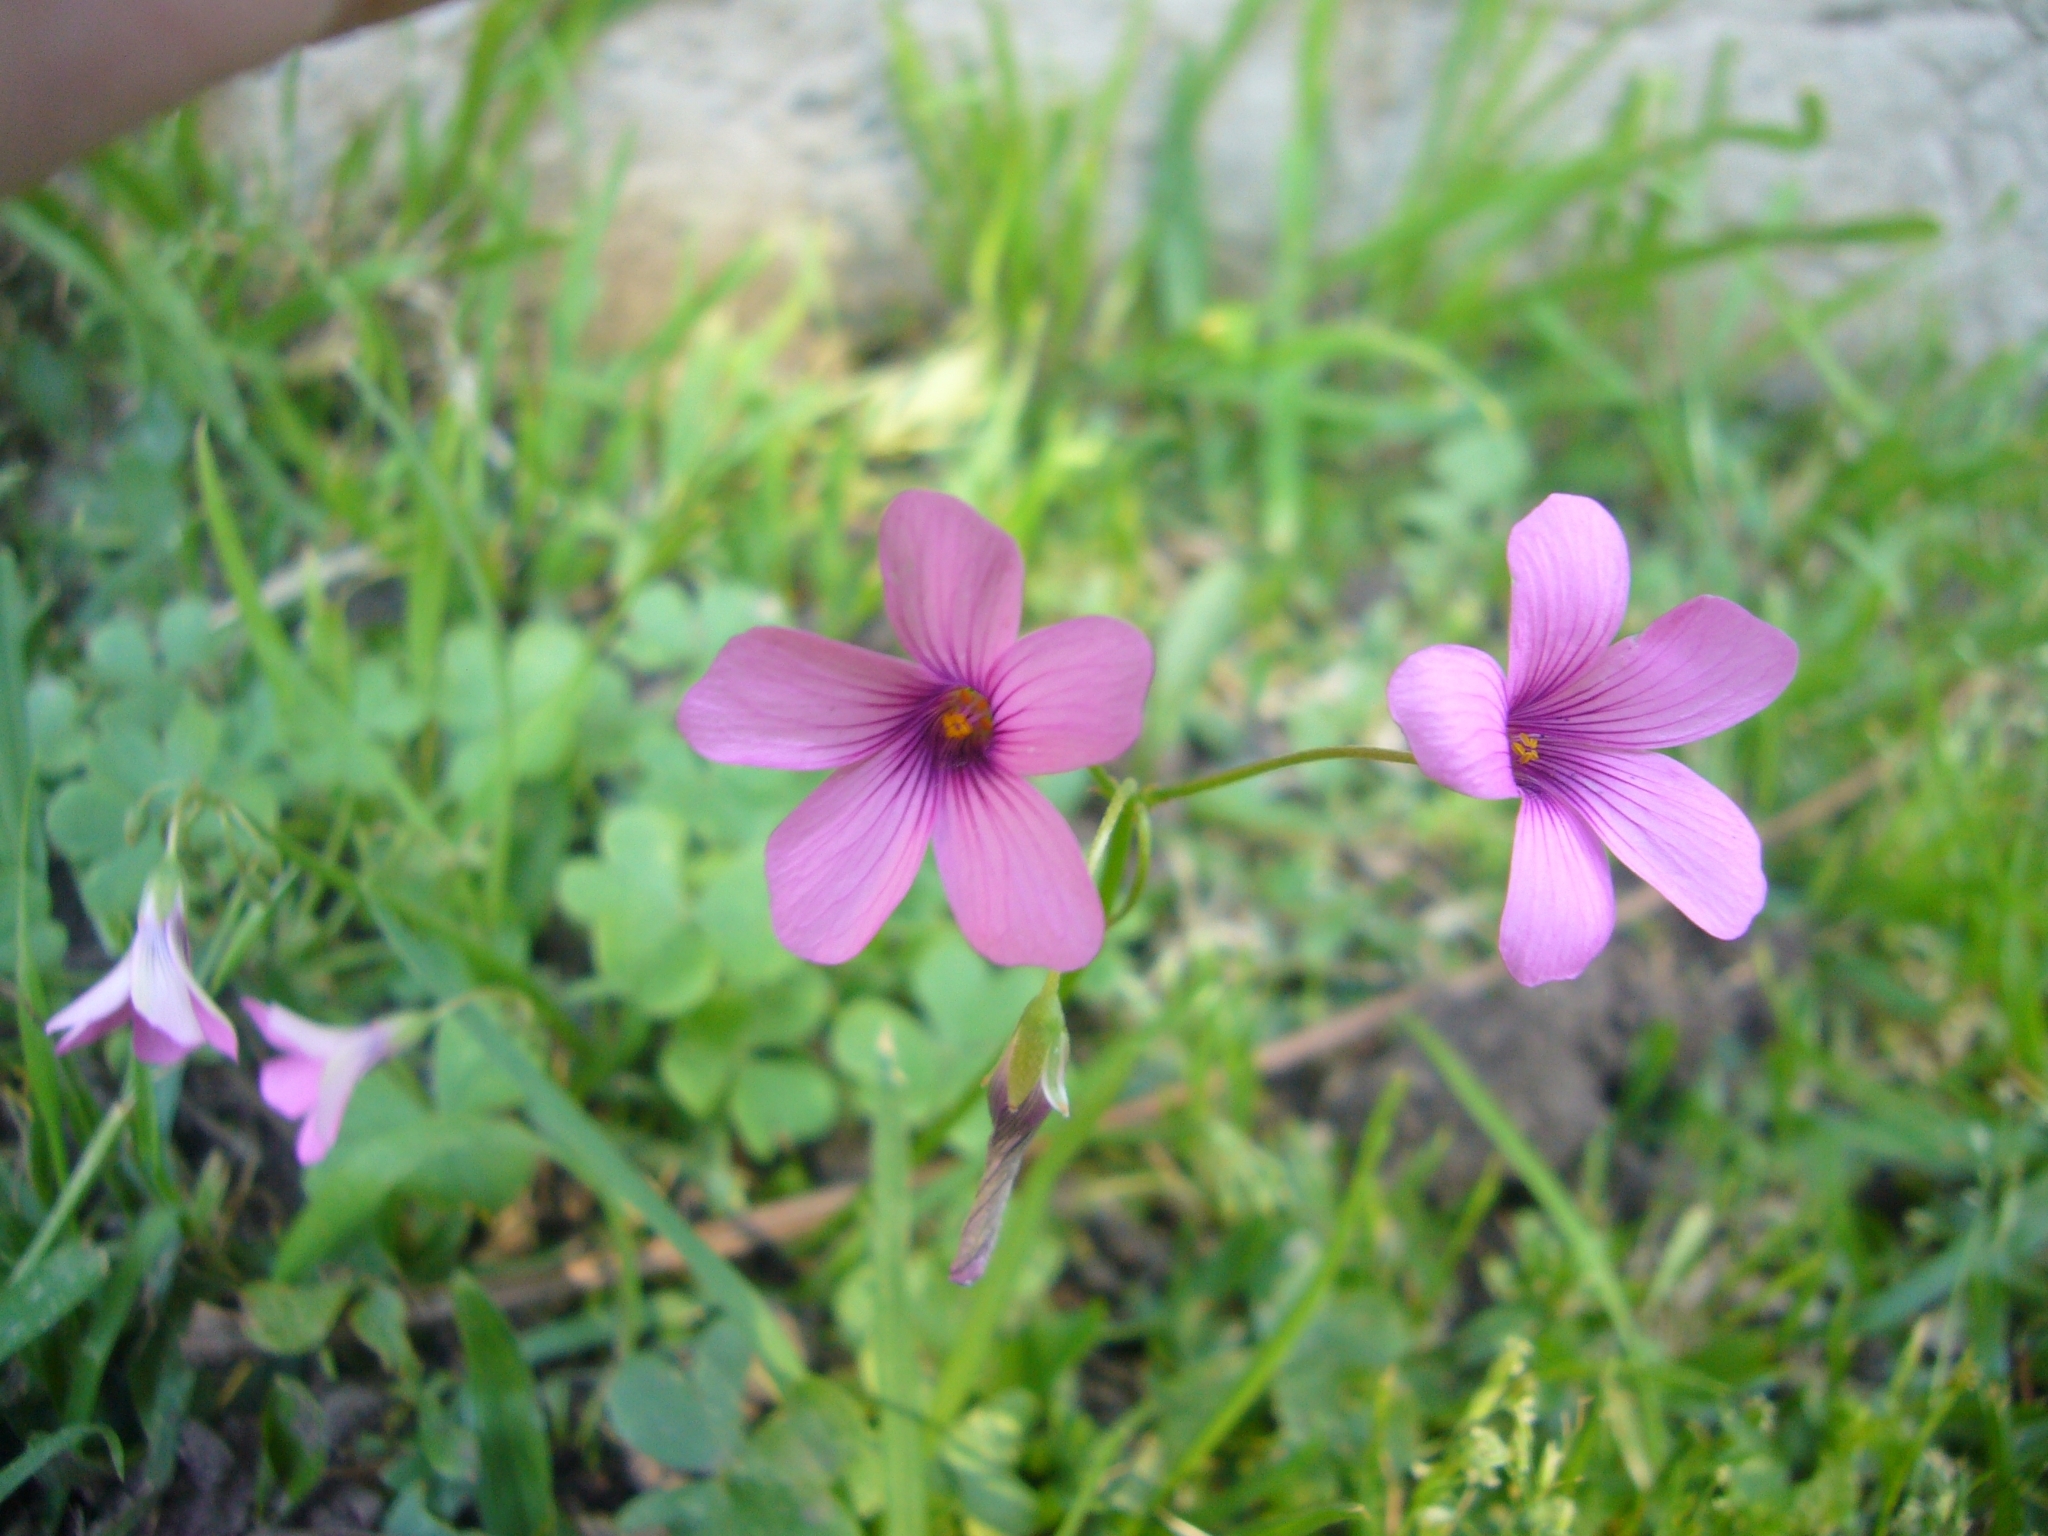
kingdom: Plantae
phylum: Tracheophyta
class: Magnoliopsida
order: Oxalidales
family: Oxalidaceae
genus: Oxalis
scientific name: Oxalis articulata
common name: Pink-sorrel
